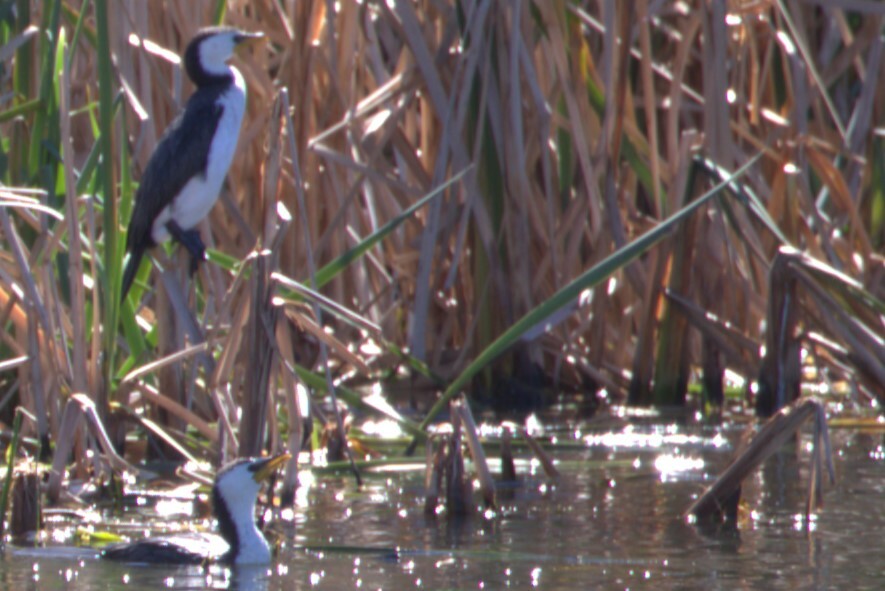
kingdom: Animalia
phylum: Chordata
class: Aves
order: Suliformes
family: Phalacrocoracidae
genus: Microcarbo
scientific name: Microcarbo melanoleucos
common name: Little pied cormorant
